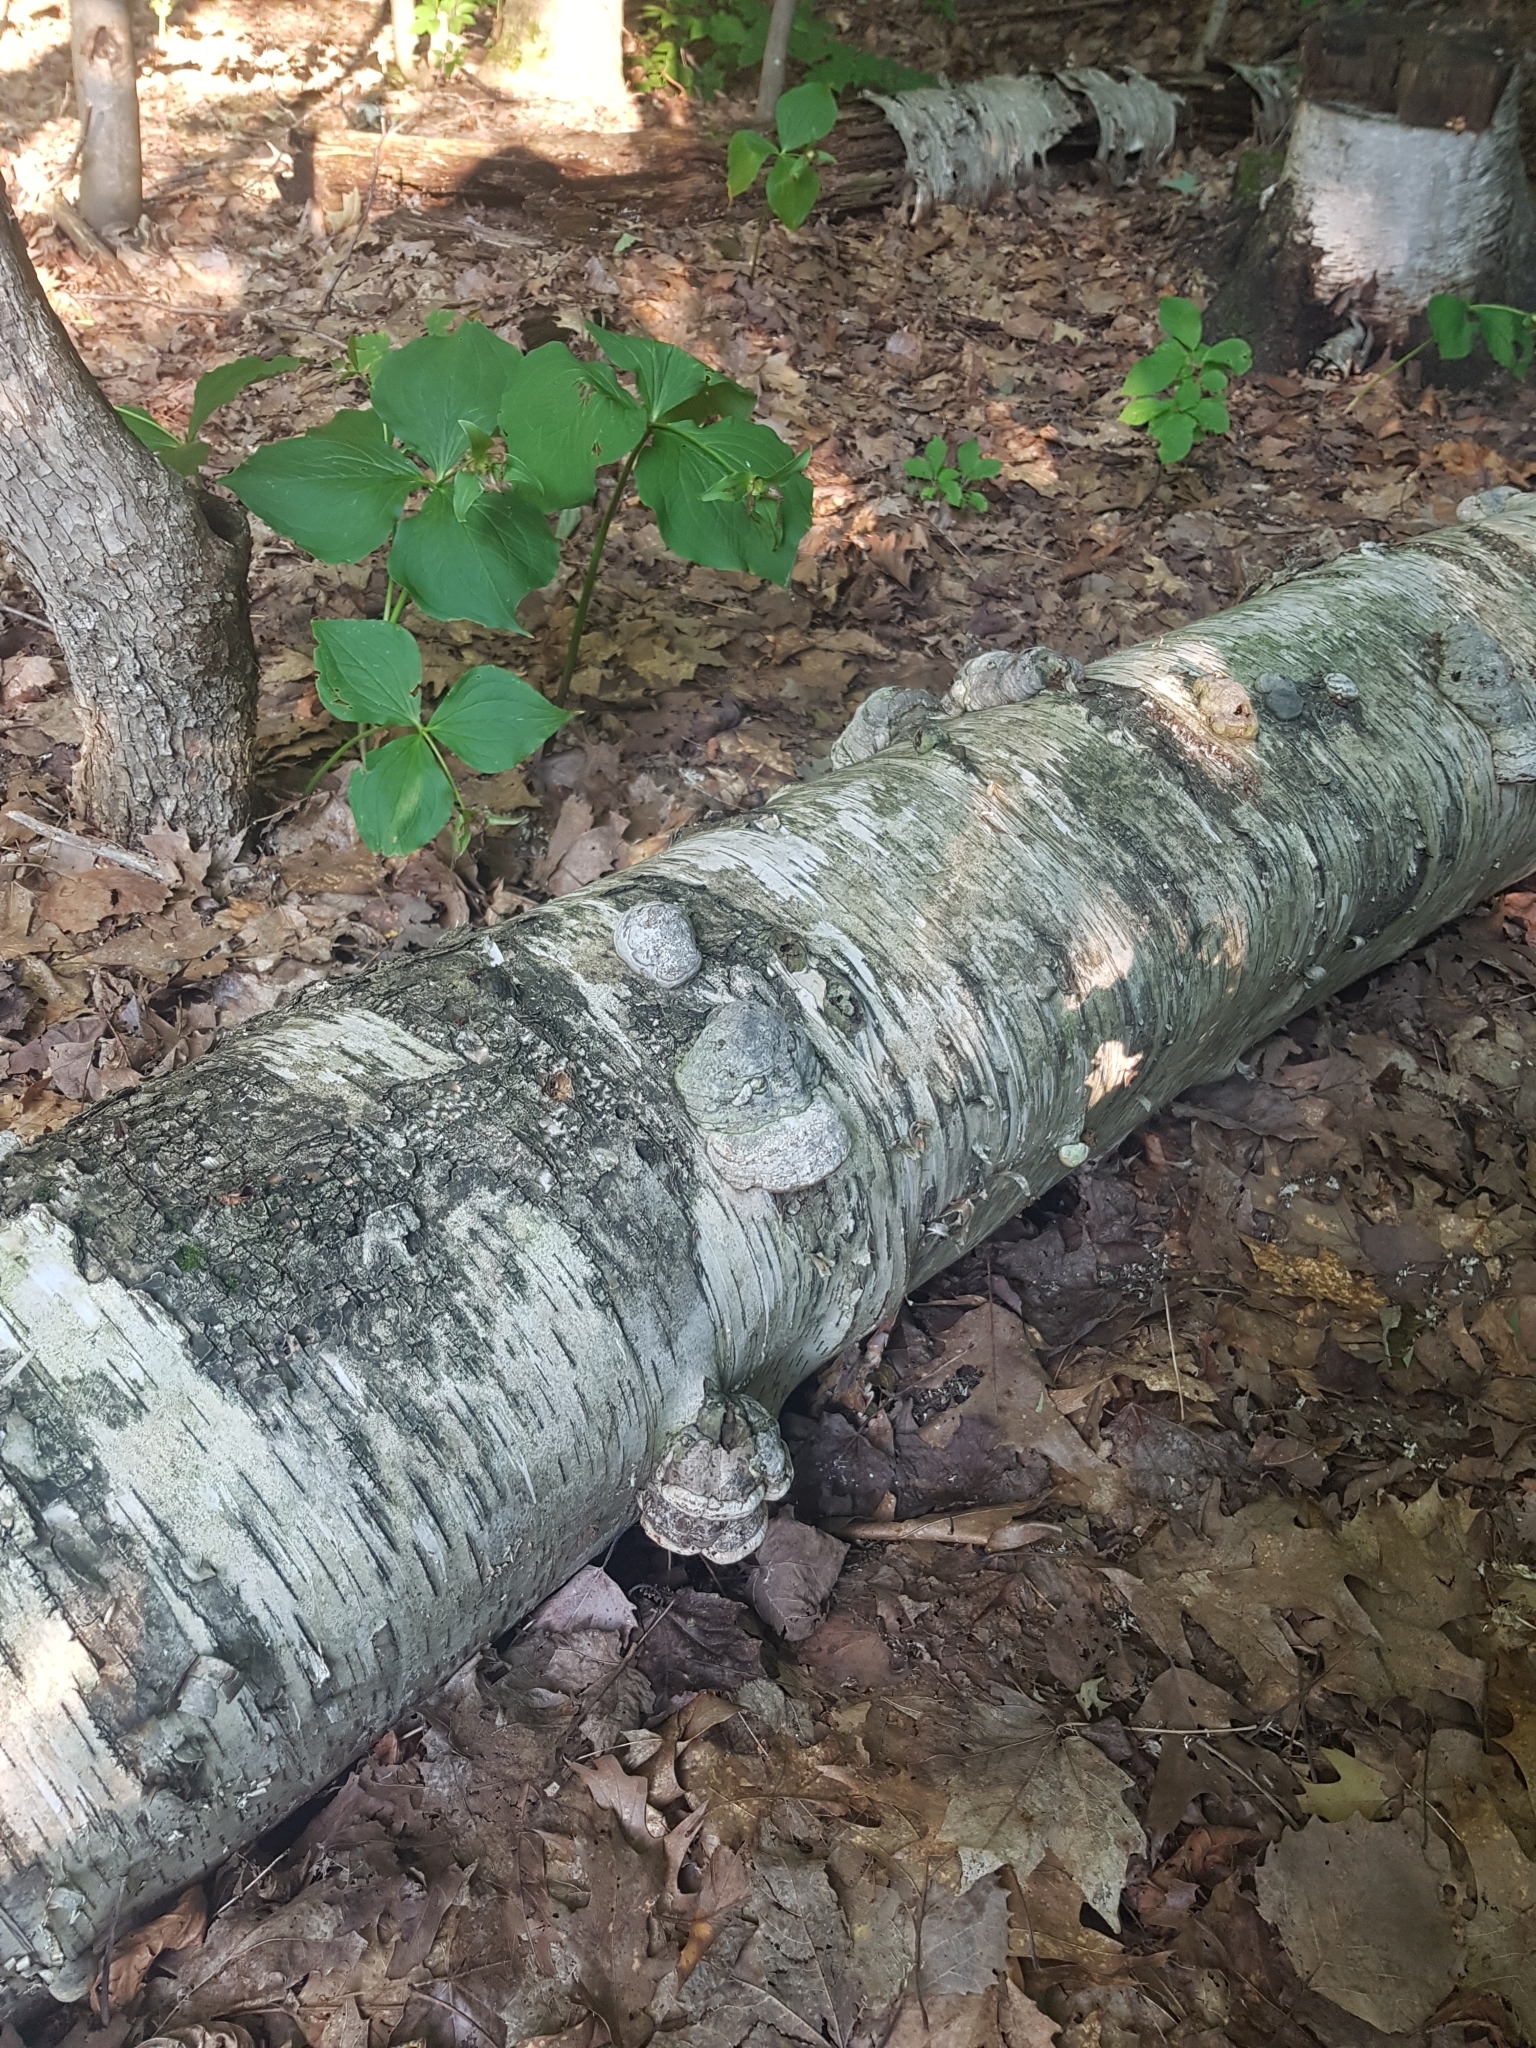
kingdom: Plantae
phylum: Tracheophyta
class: Magnoliopsida
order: Fagales
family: Betulaceae
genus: Betula
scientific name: Betula papyrifera
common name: Paper birch
